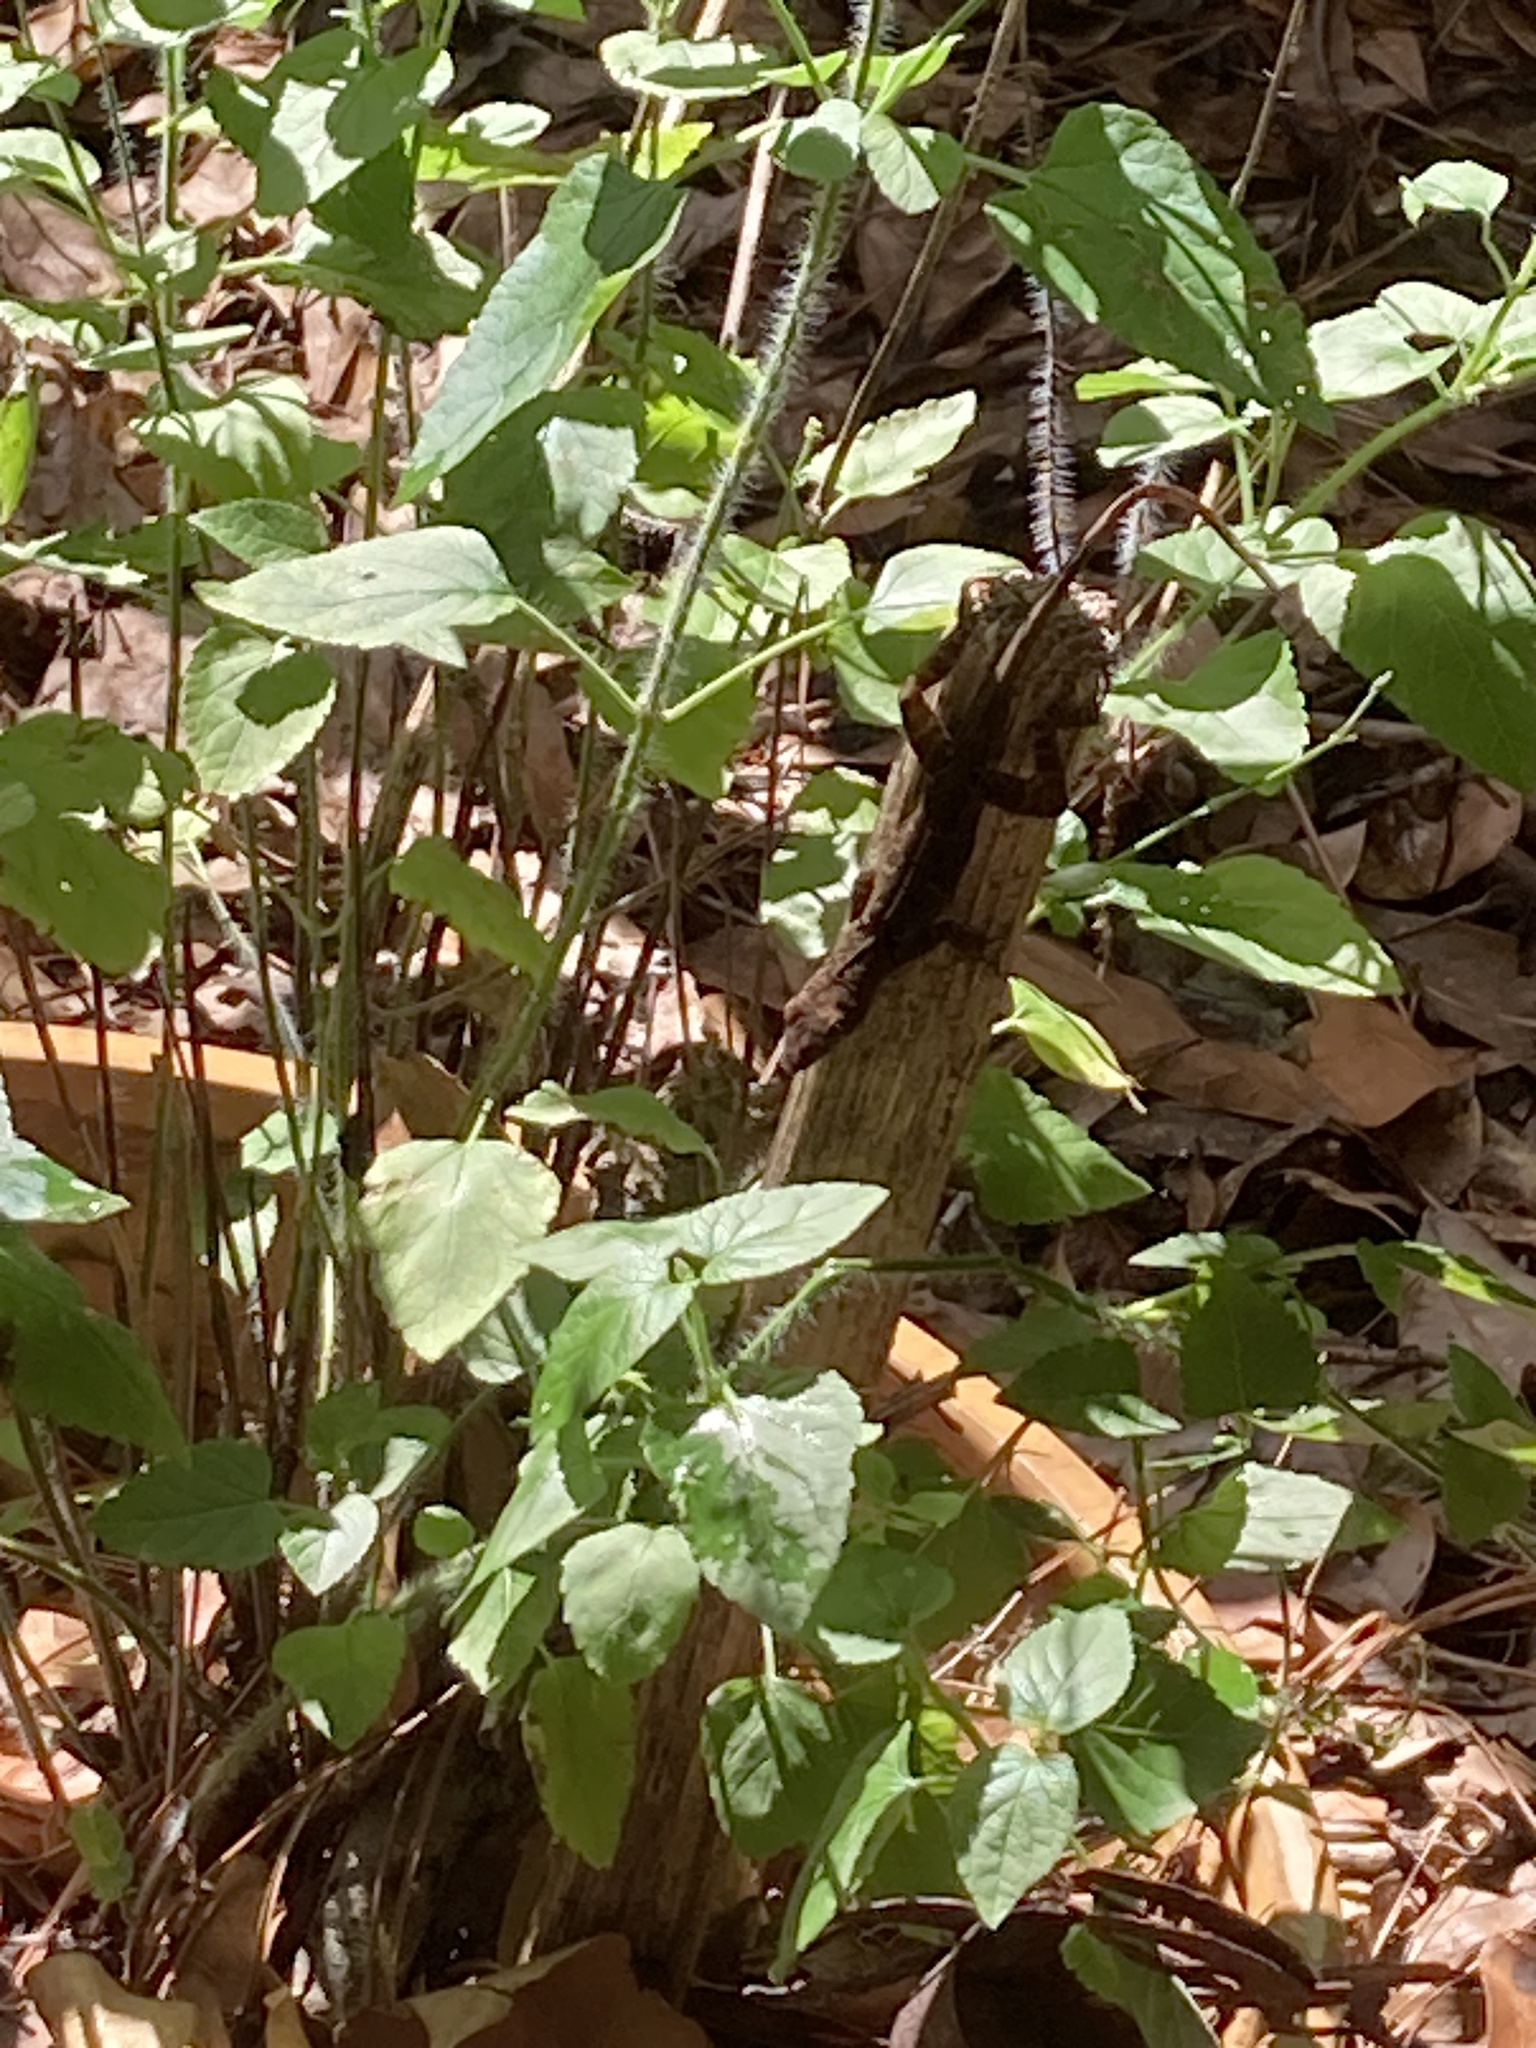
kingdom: Animalia
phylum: Chordata
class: Squamata
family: Dactyloidae
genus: Anolis
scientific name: Anolis sagrei
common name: Brown anole
